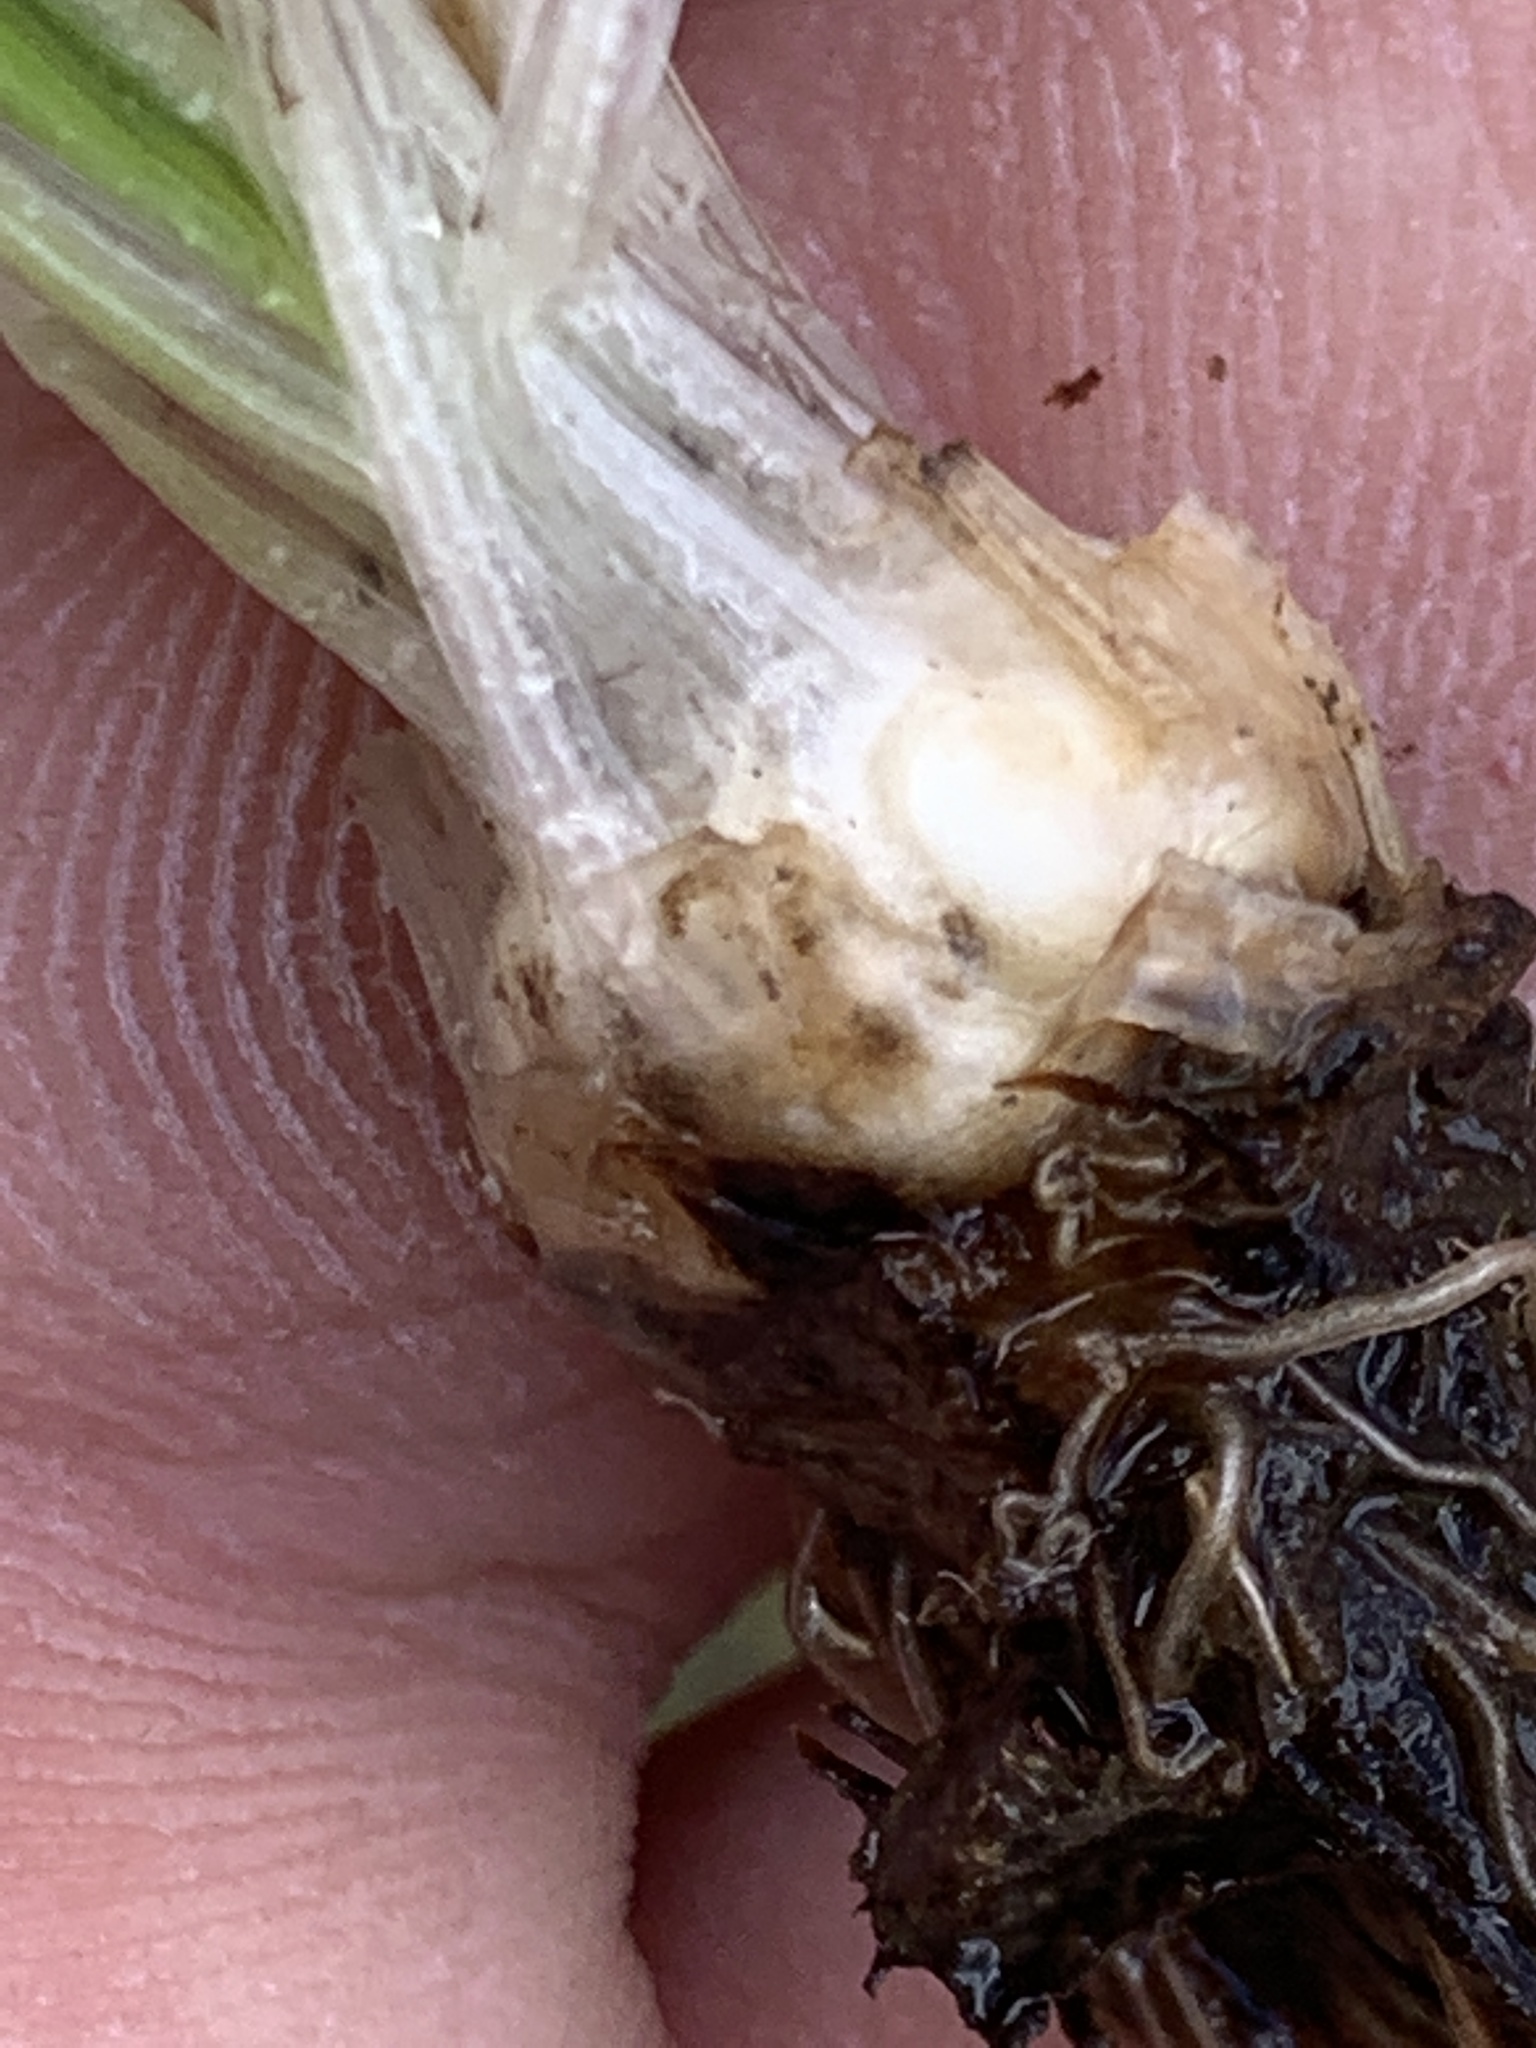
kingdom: Plantae
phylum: Tracheophyta
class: Lycopodiopsida
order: Isoetales
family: Isoetaceae
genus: Isoetes
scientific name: Isoetes nuttallii
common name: Nuttall's quillwort
